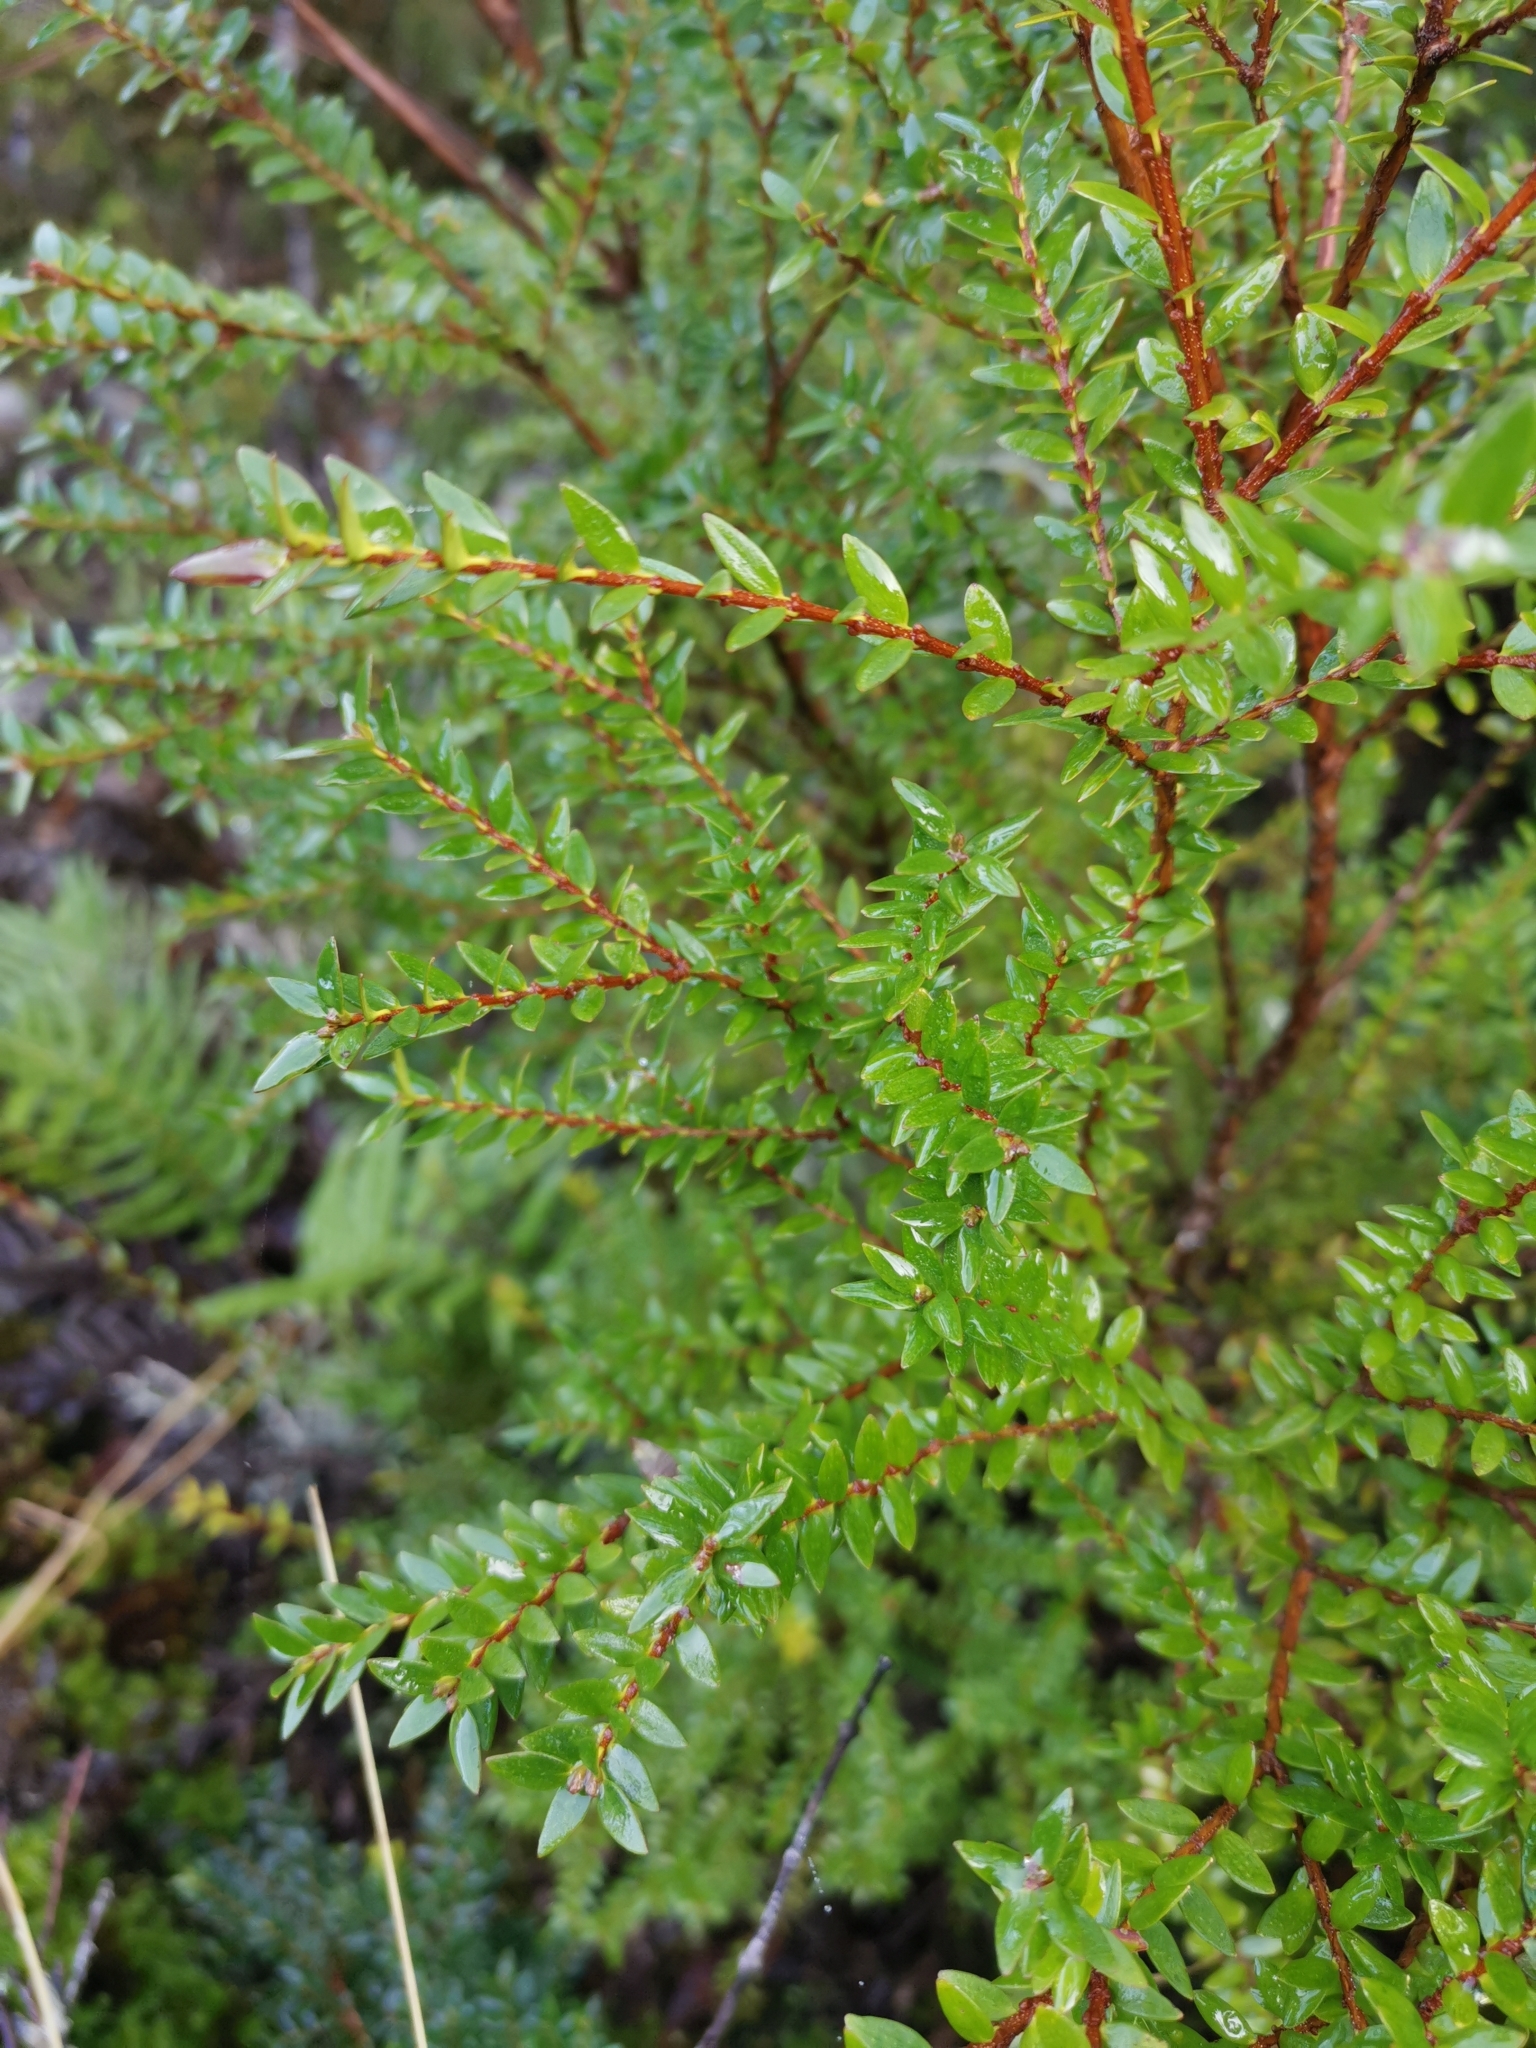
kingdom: Plantae
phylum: Tracheophyta
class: Magnoliopsida
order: Myrtales
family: Myrtaceae
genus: Tepualia
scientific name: Tepualia stipularis
